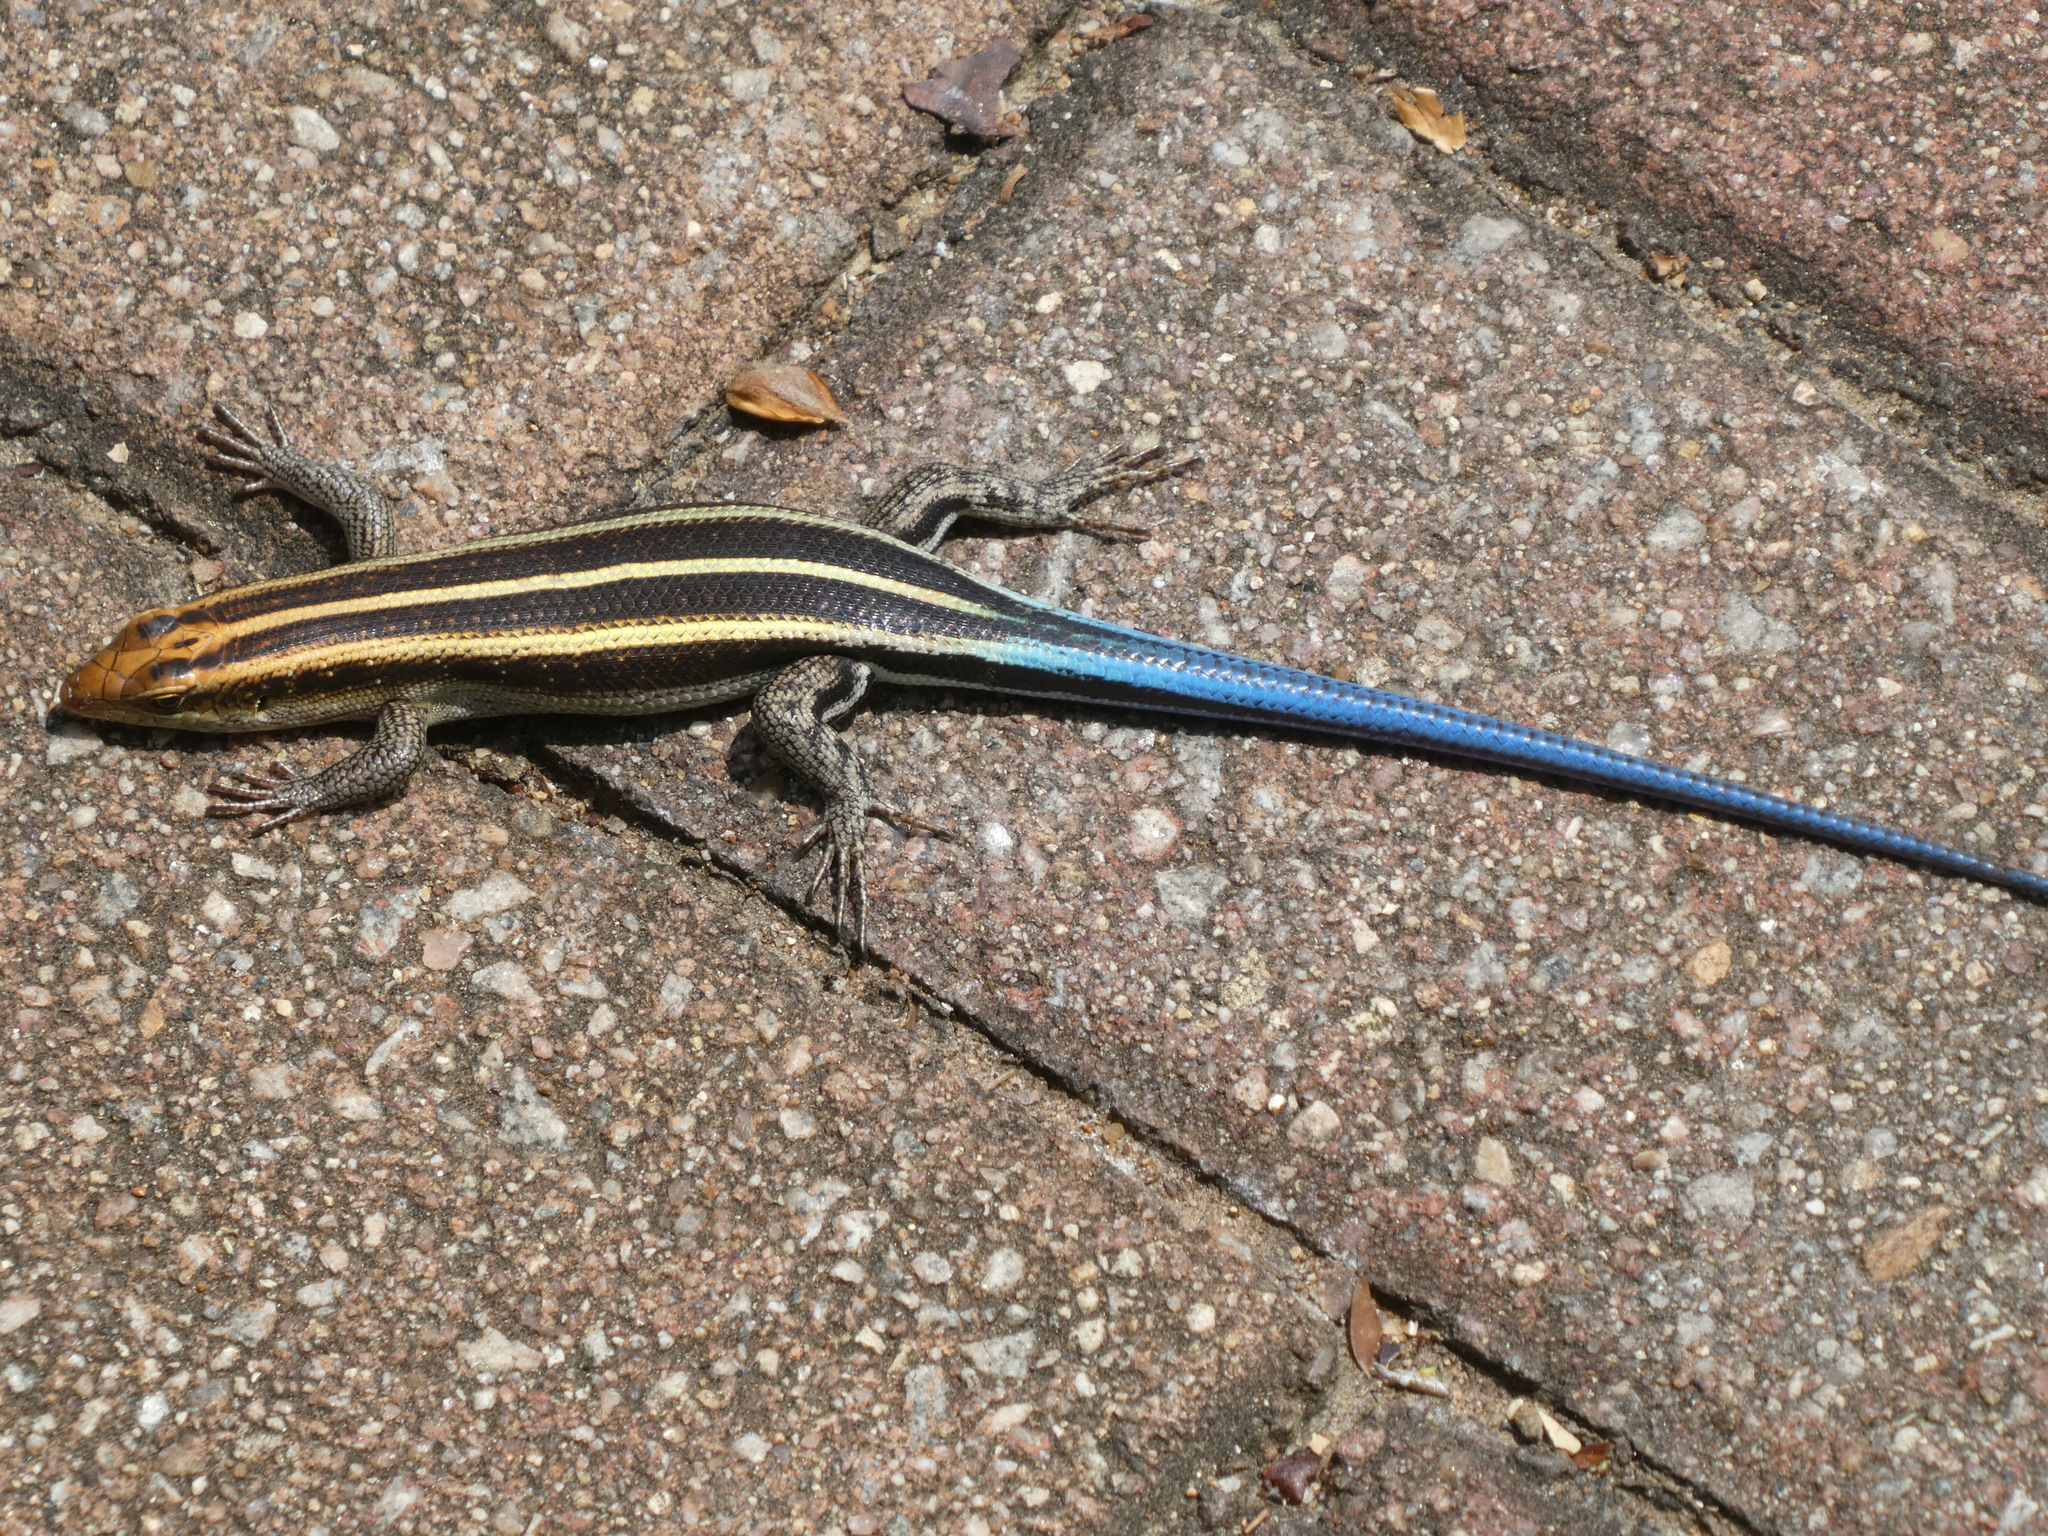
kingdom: Animalia
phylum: Chordata
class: Squamata
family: Scincidae
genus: Trachylepis
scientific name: Trachylepis margaritifera
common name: Rainbow skink
